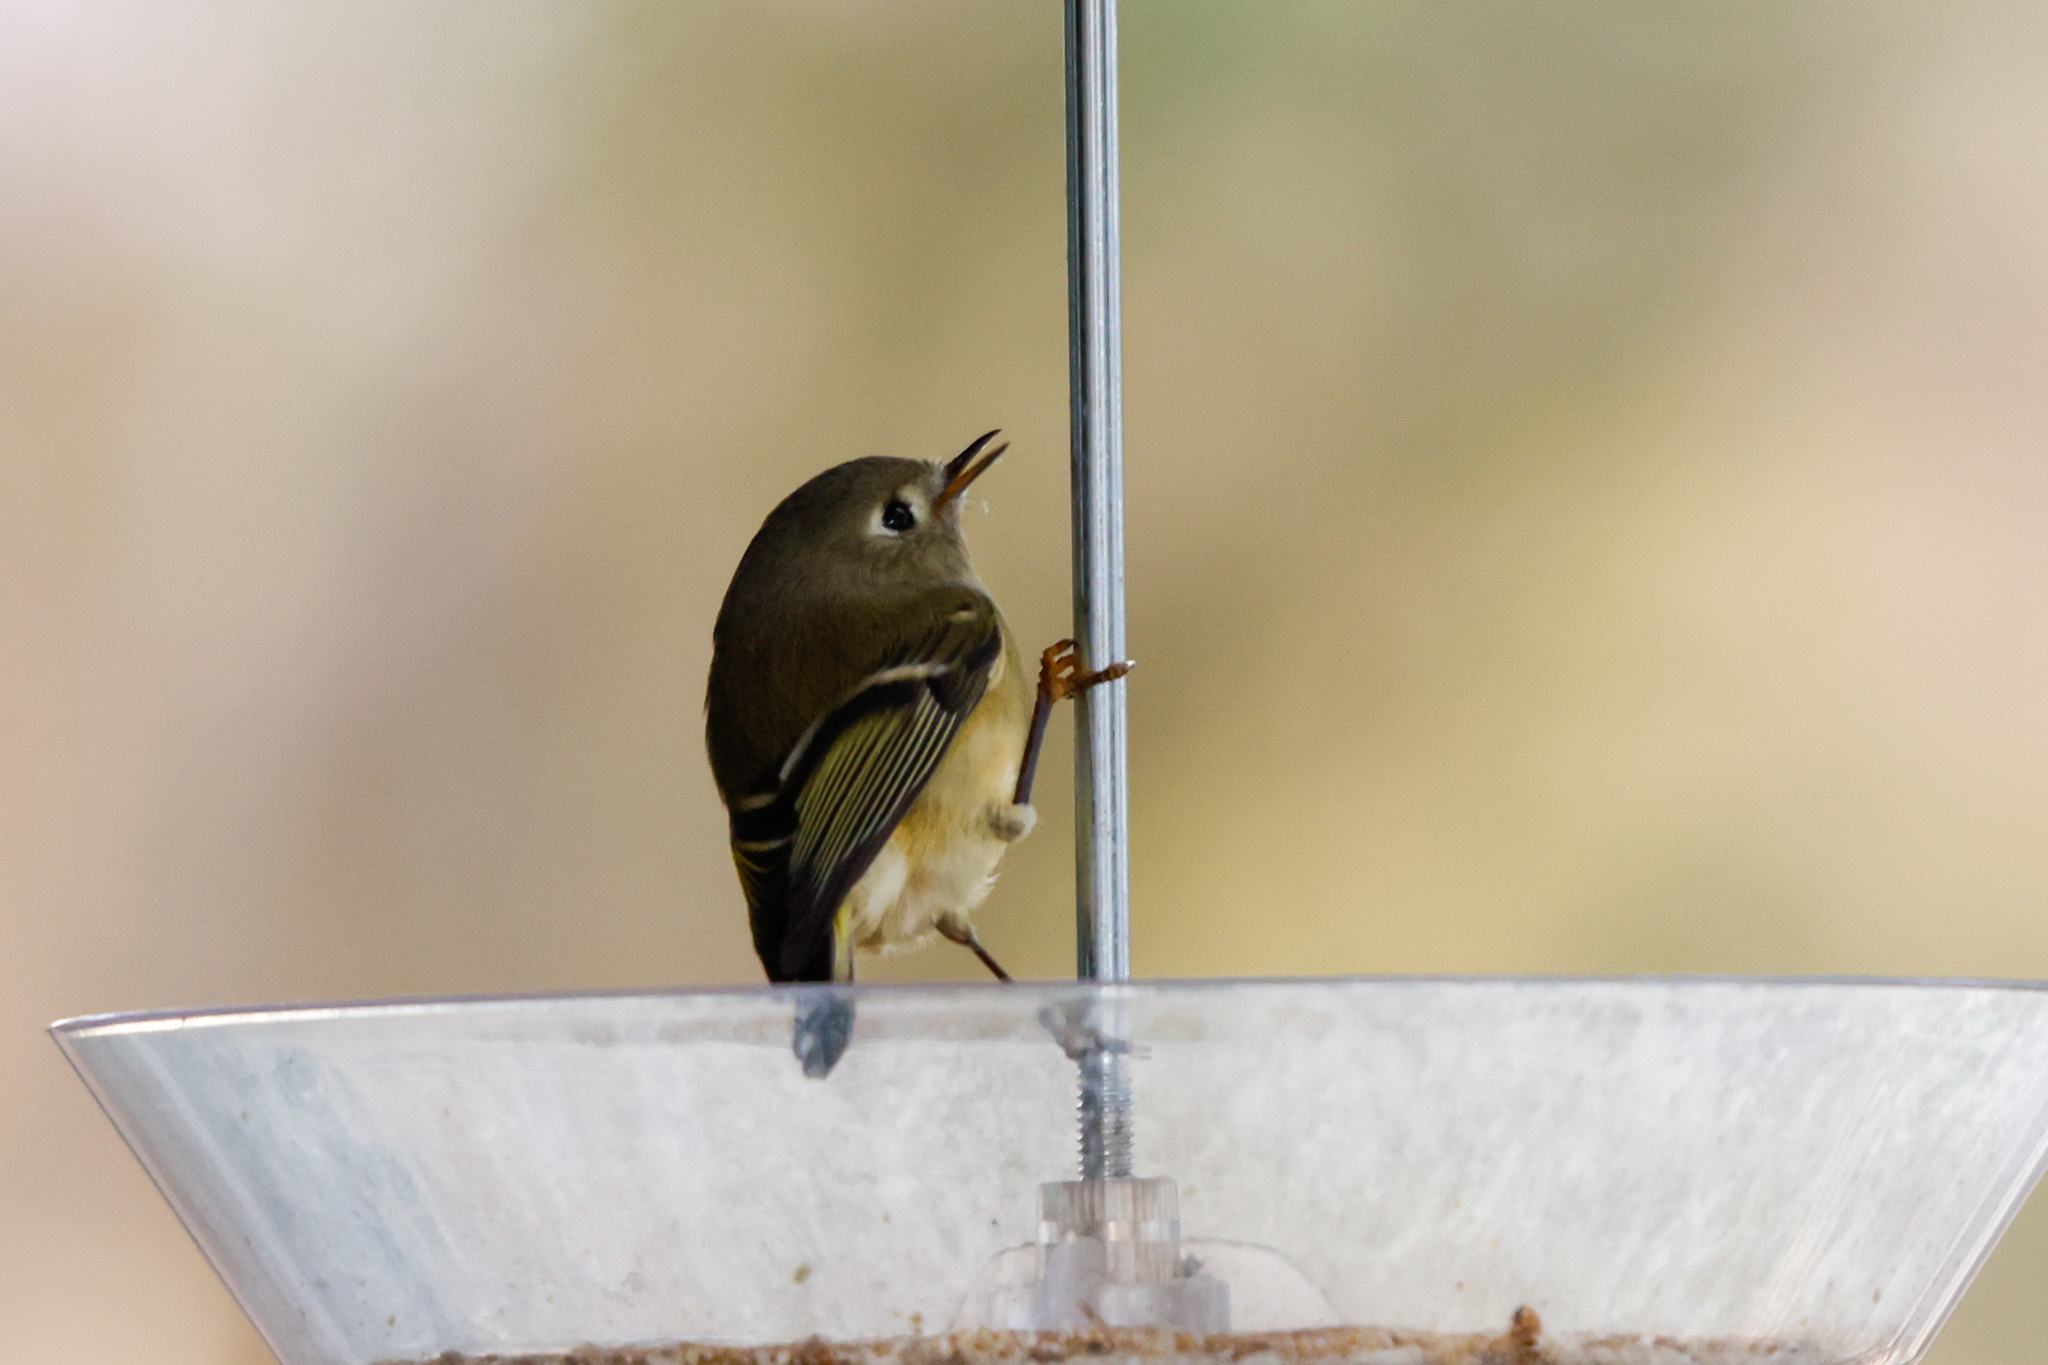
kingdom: Animalia
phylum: Chordata
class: Aves
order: Passeriformes
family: Regulidae
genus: Regulus
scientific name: Regulus calendula
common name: Ruby-crowned kinglet
